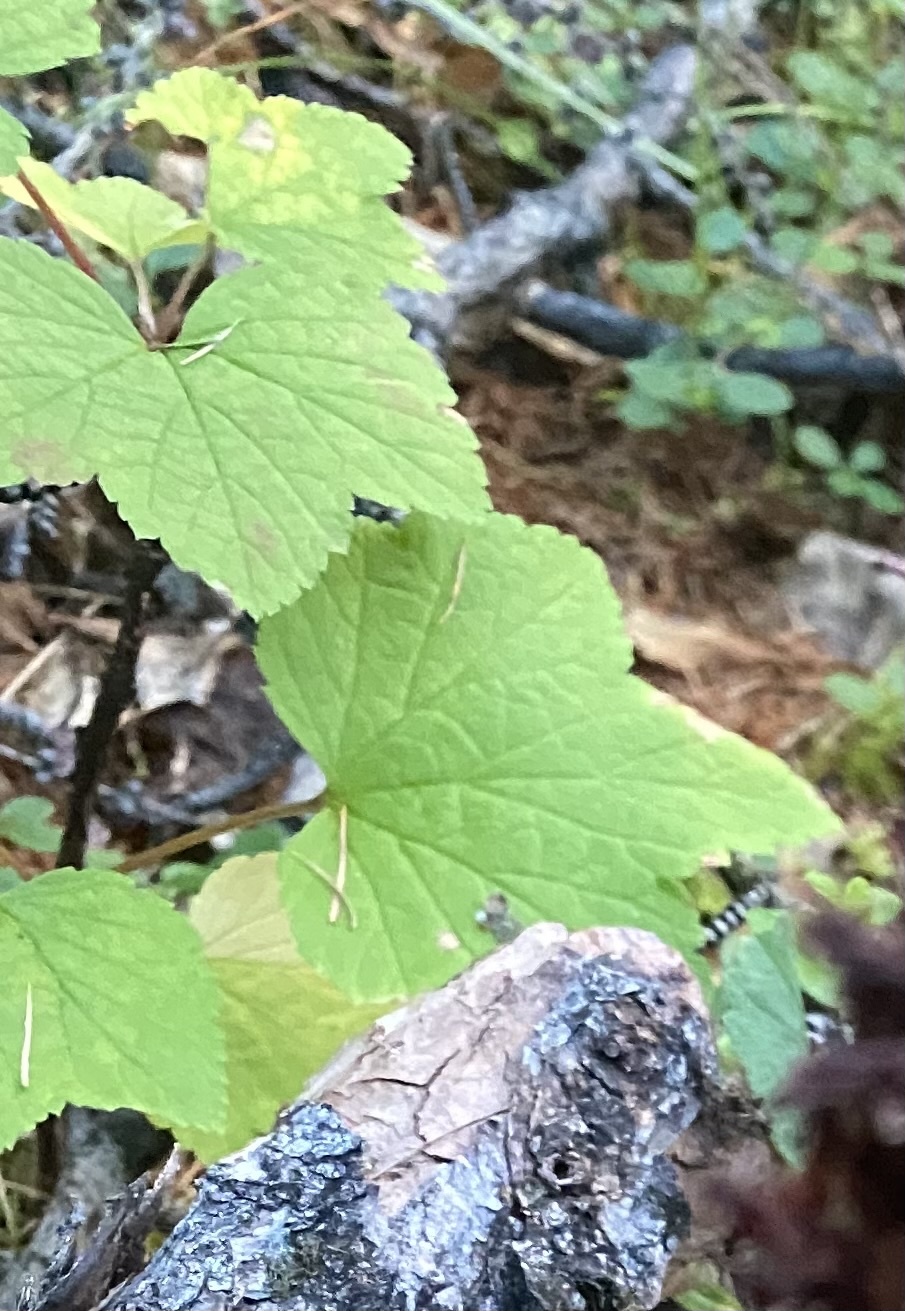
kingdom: Plantae
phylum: Tracheophyta
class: Magnoliopsida
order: Saxifragales
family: Grossulariaceae
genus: Ribes
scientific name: Ribes triste
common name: Swamp red currant
